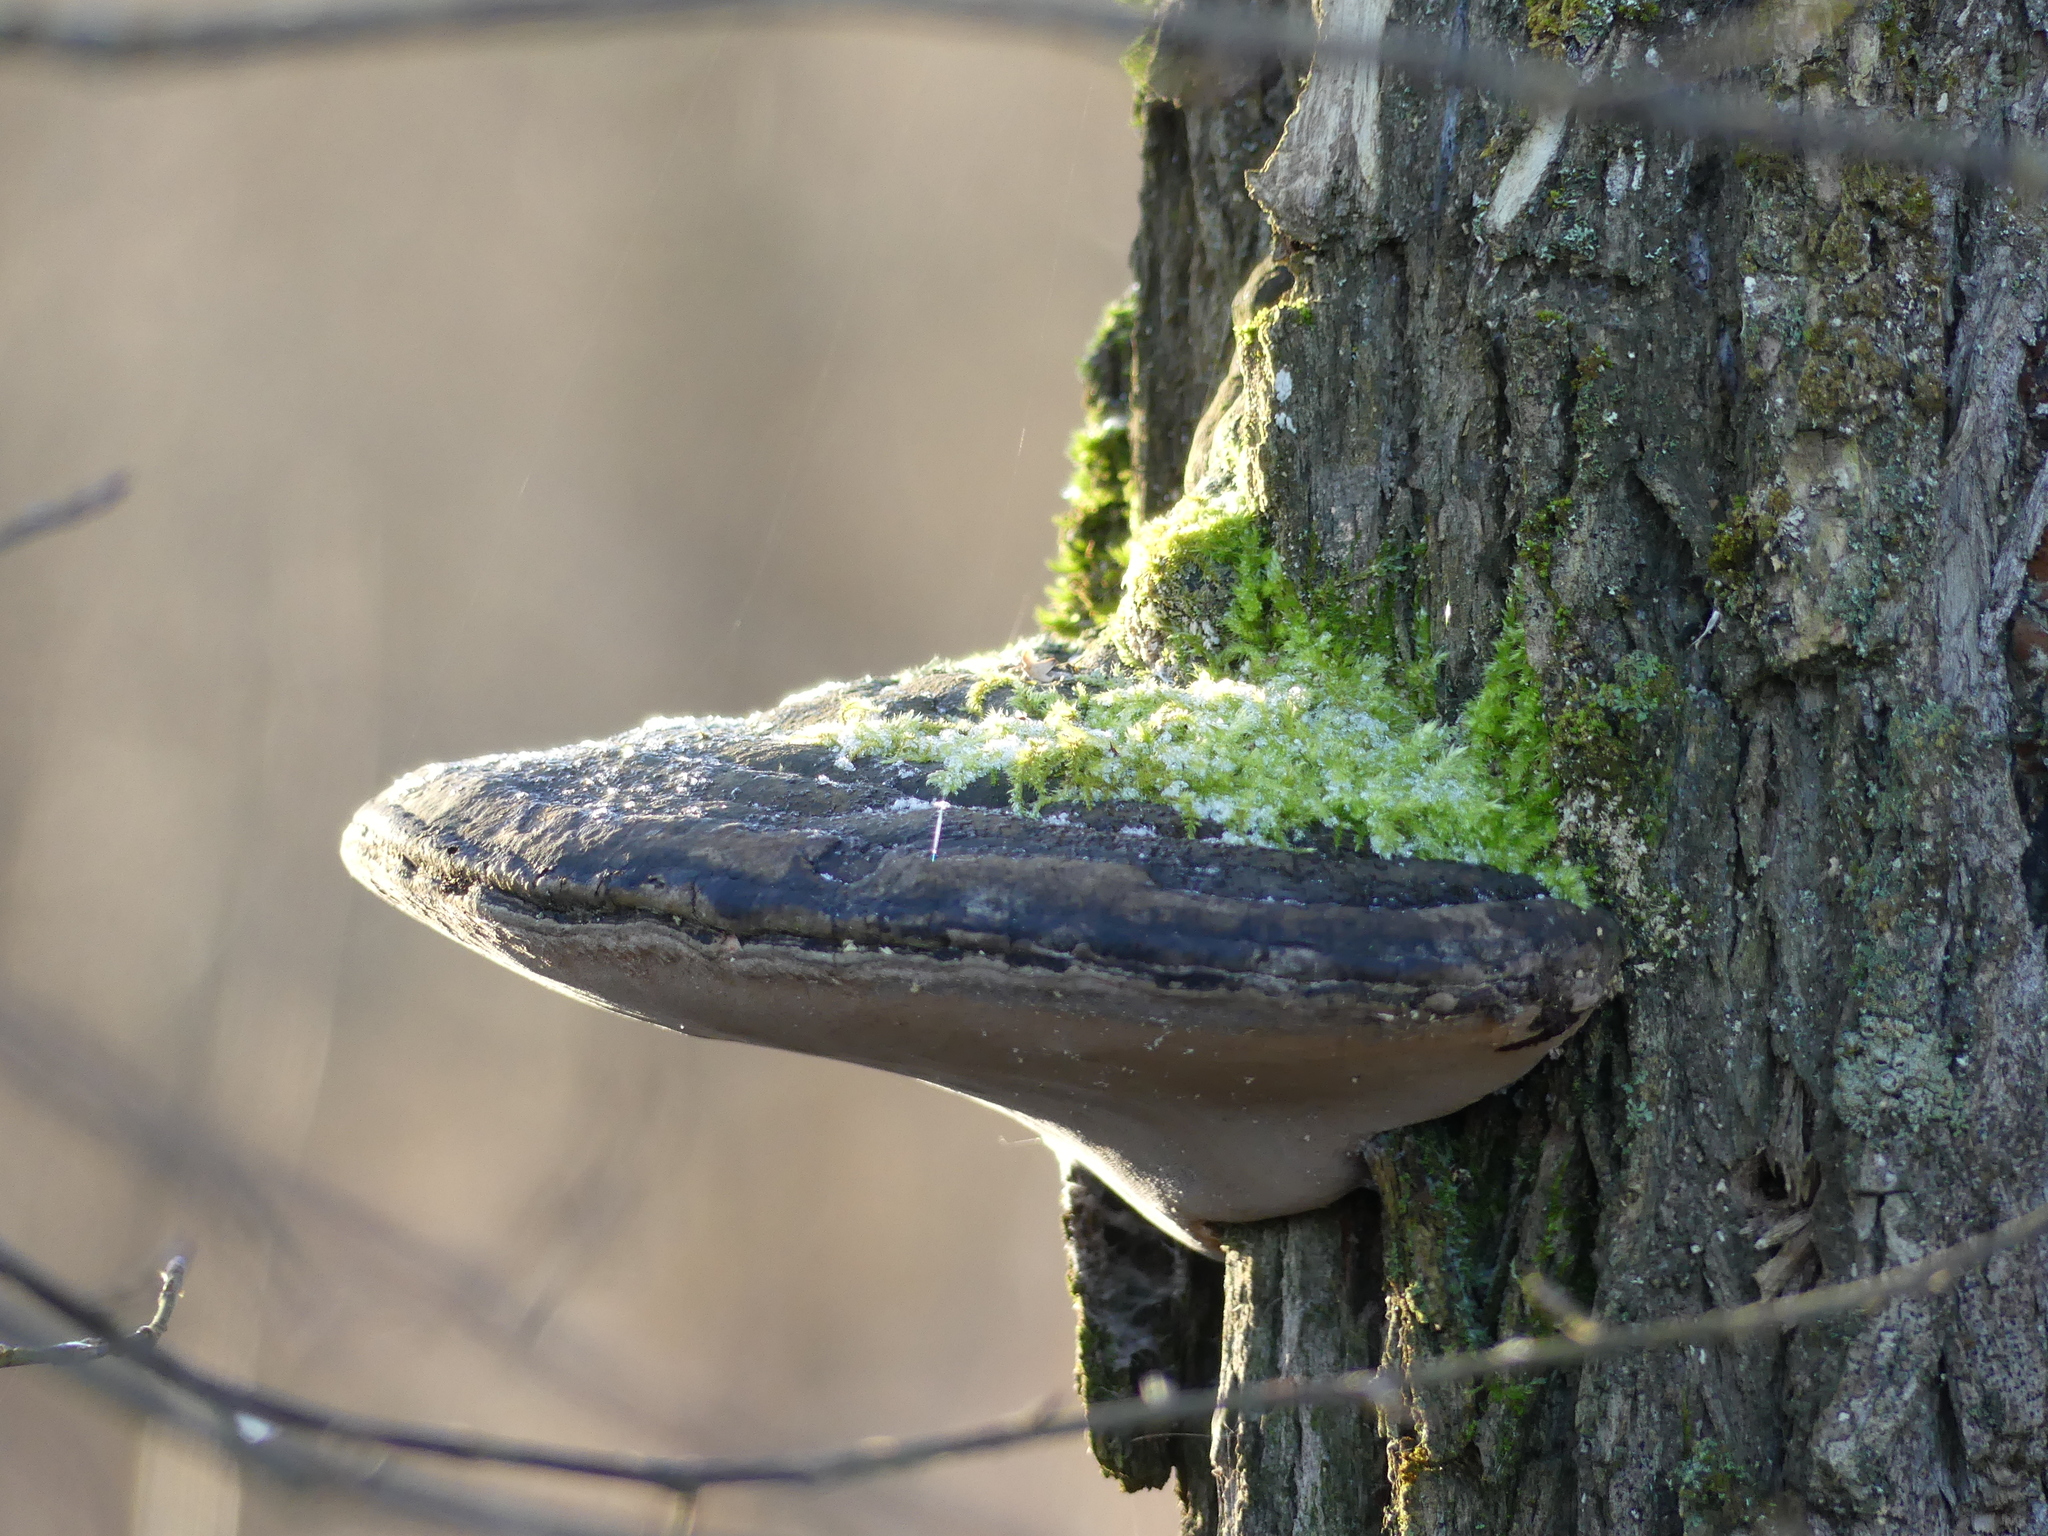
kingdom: Fungi
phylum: Basidiomycota
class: Agaricomycetes
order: Hymenochaetales
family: Hymenochaetaceae
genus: Phellinus
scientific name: Phellinus igniarius
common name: Willow bracket
